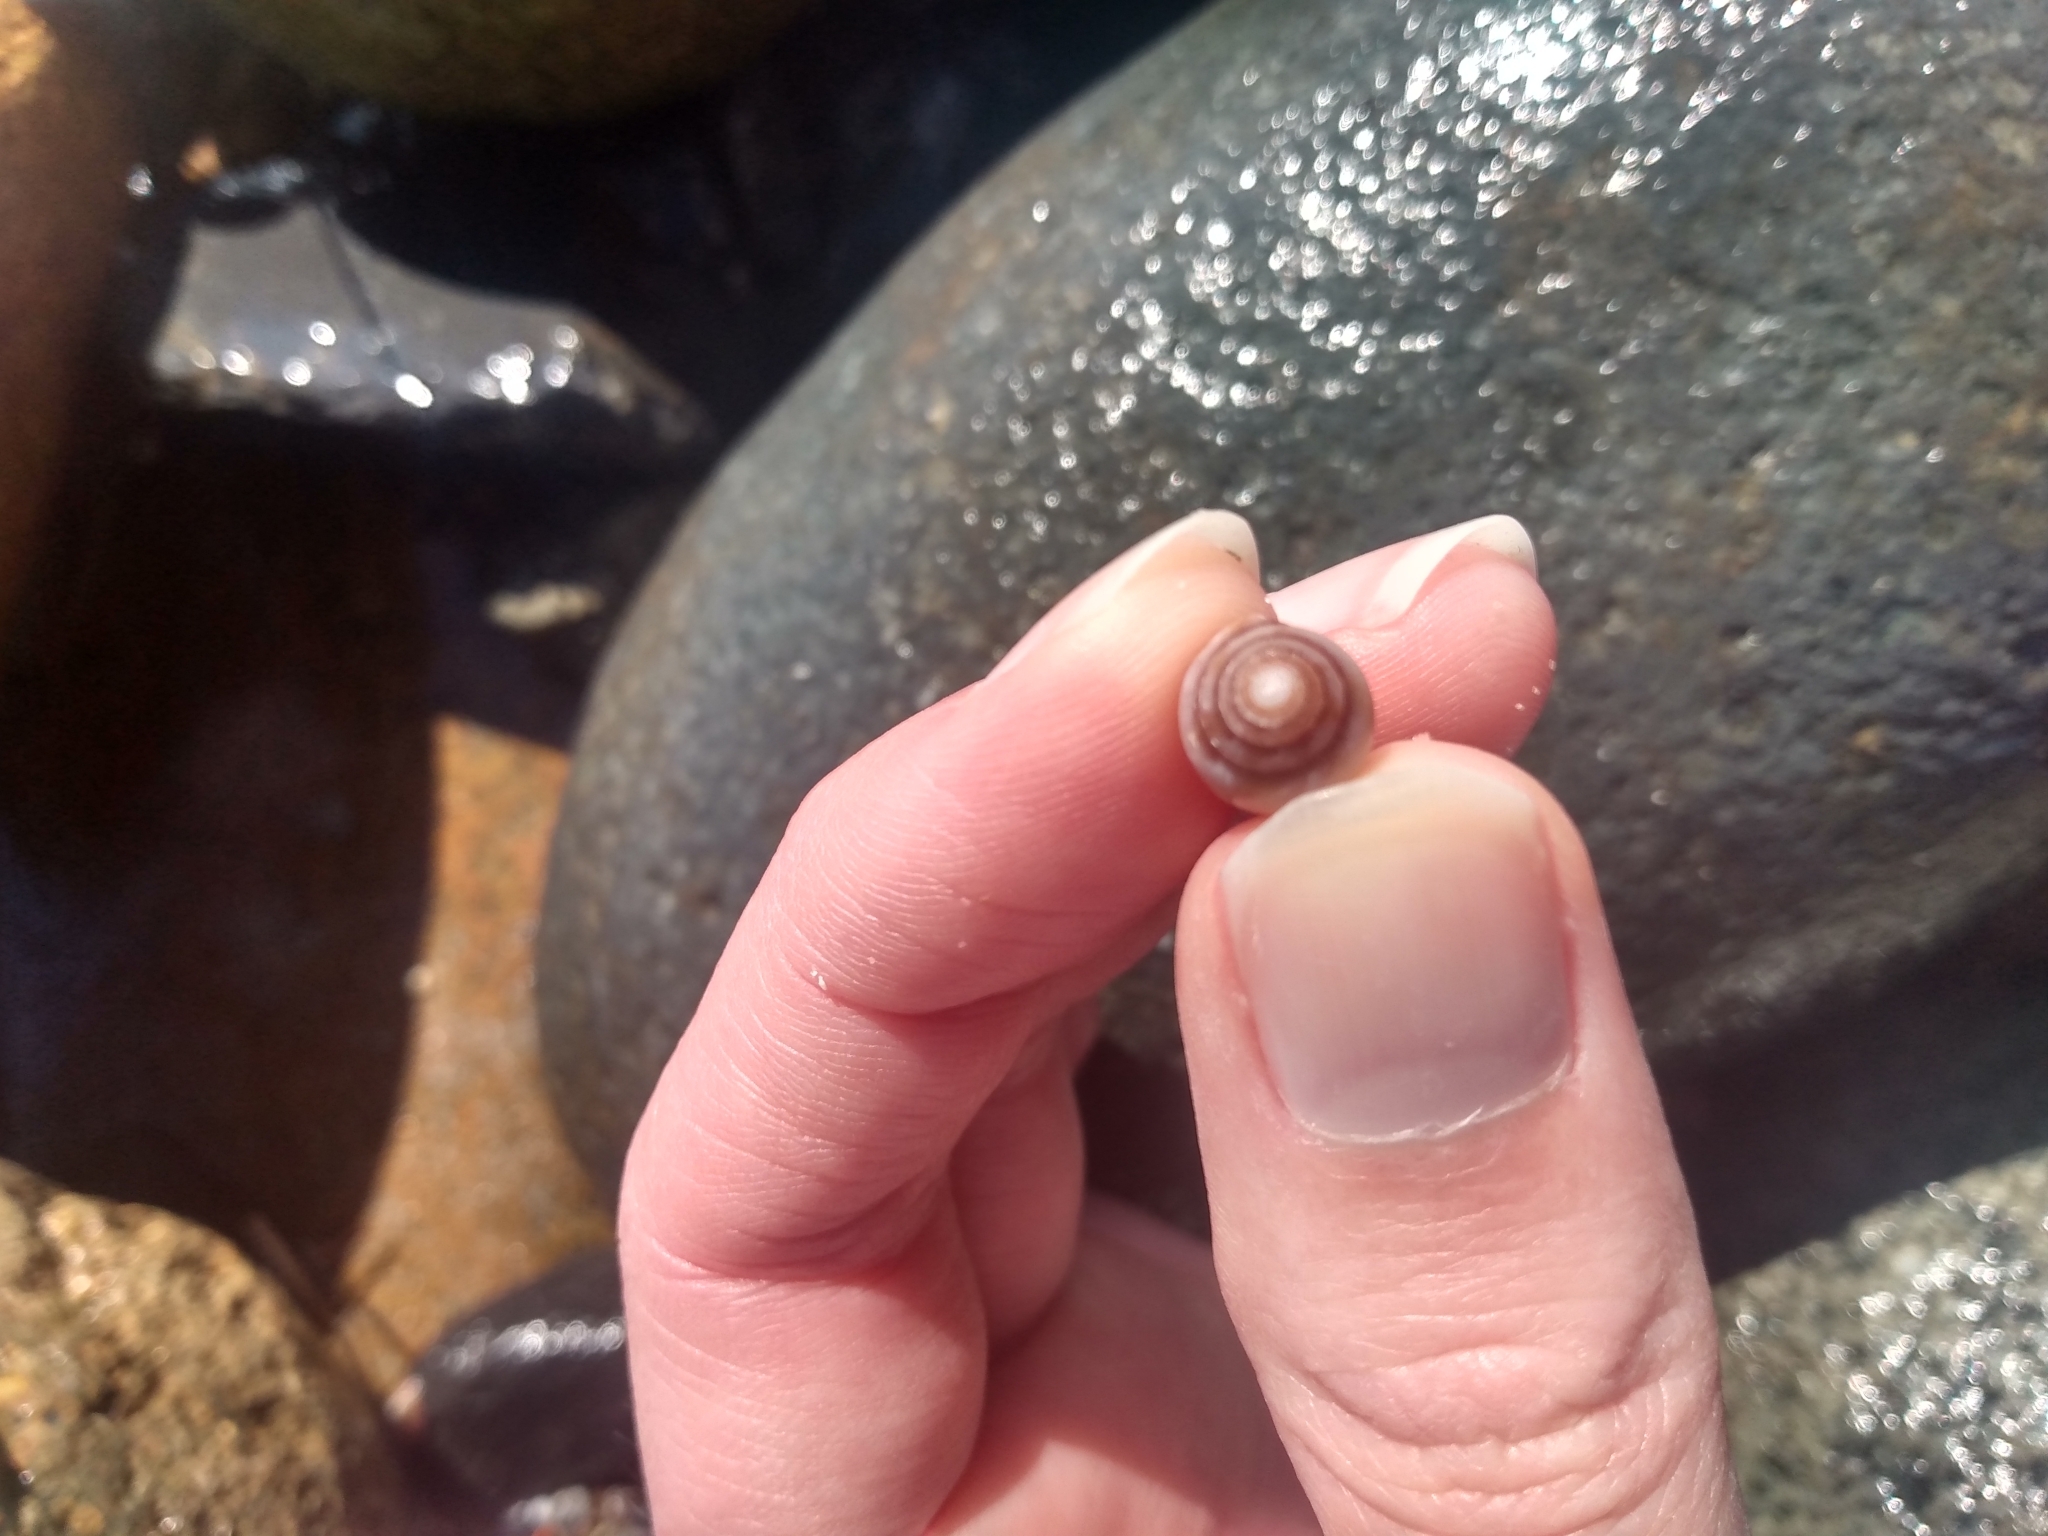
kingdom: Animalia
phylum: Mollusca
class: Gastropoda
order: Neogastropoda
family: Conidae
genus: Californiconus
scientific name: Californiconus californicus
